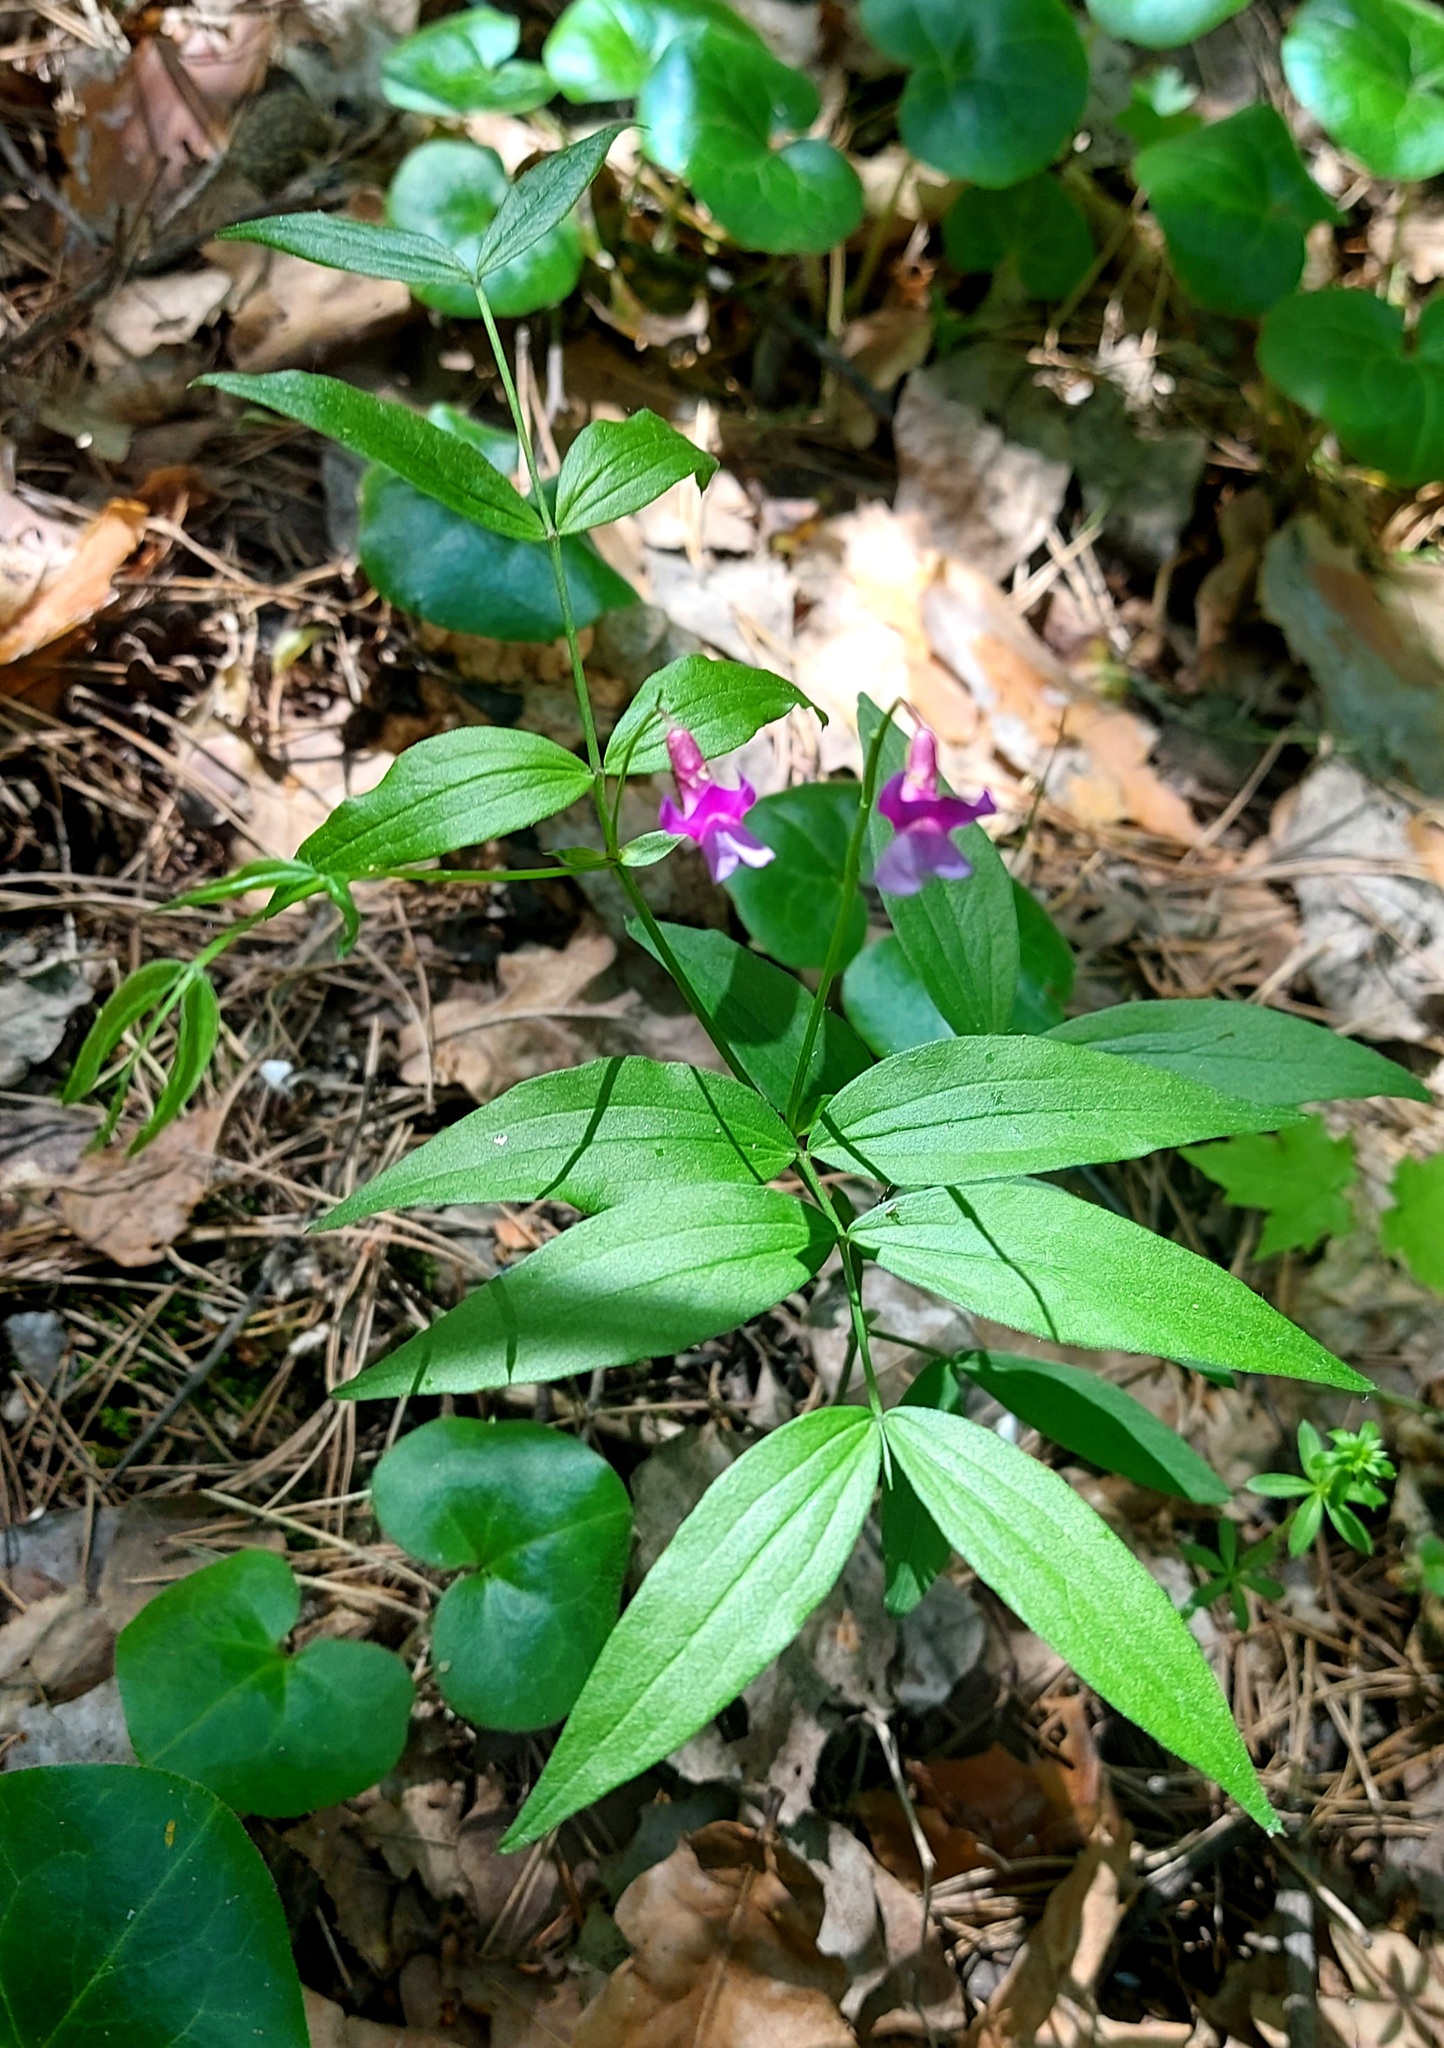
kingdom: Plantae
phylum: Tracheophyta
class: Magnoliopsida
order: Fabales
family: Fabaceae
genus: Lathyrus
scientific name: Lathyrus vernus
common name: Spring pea
